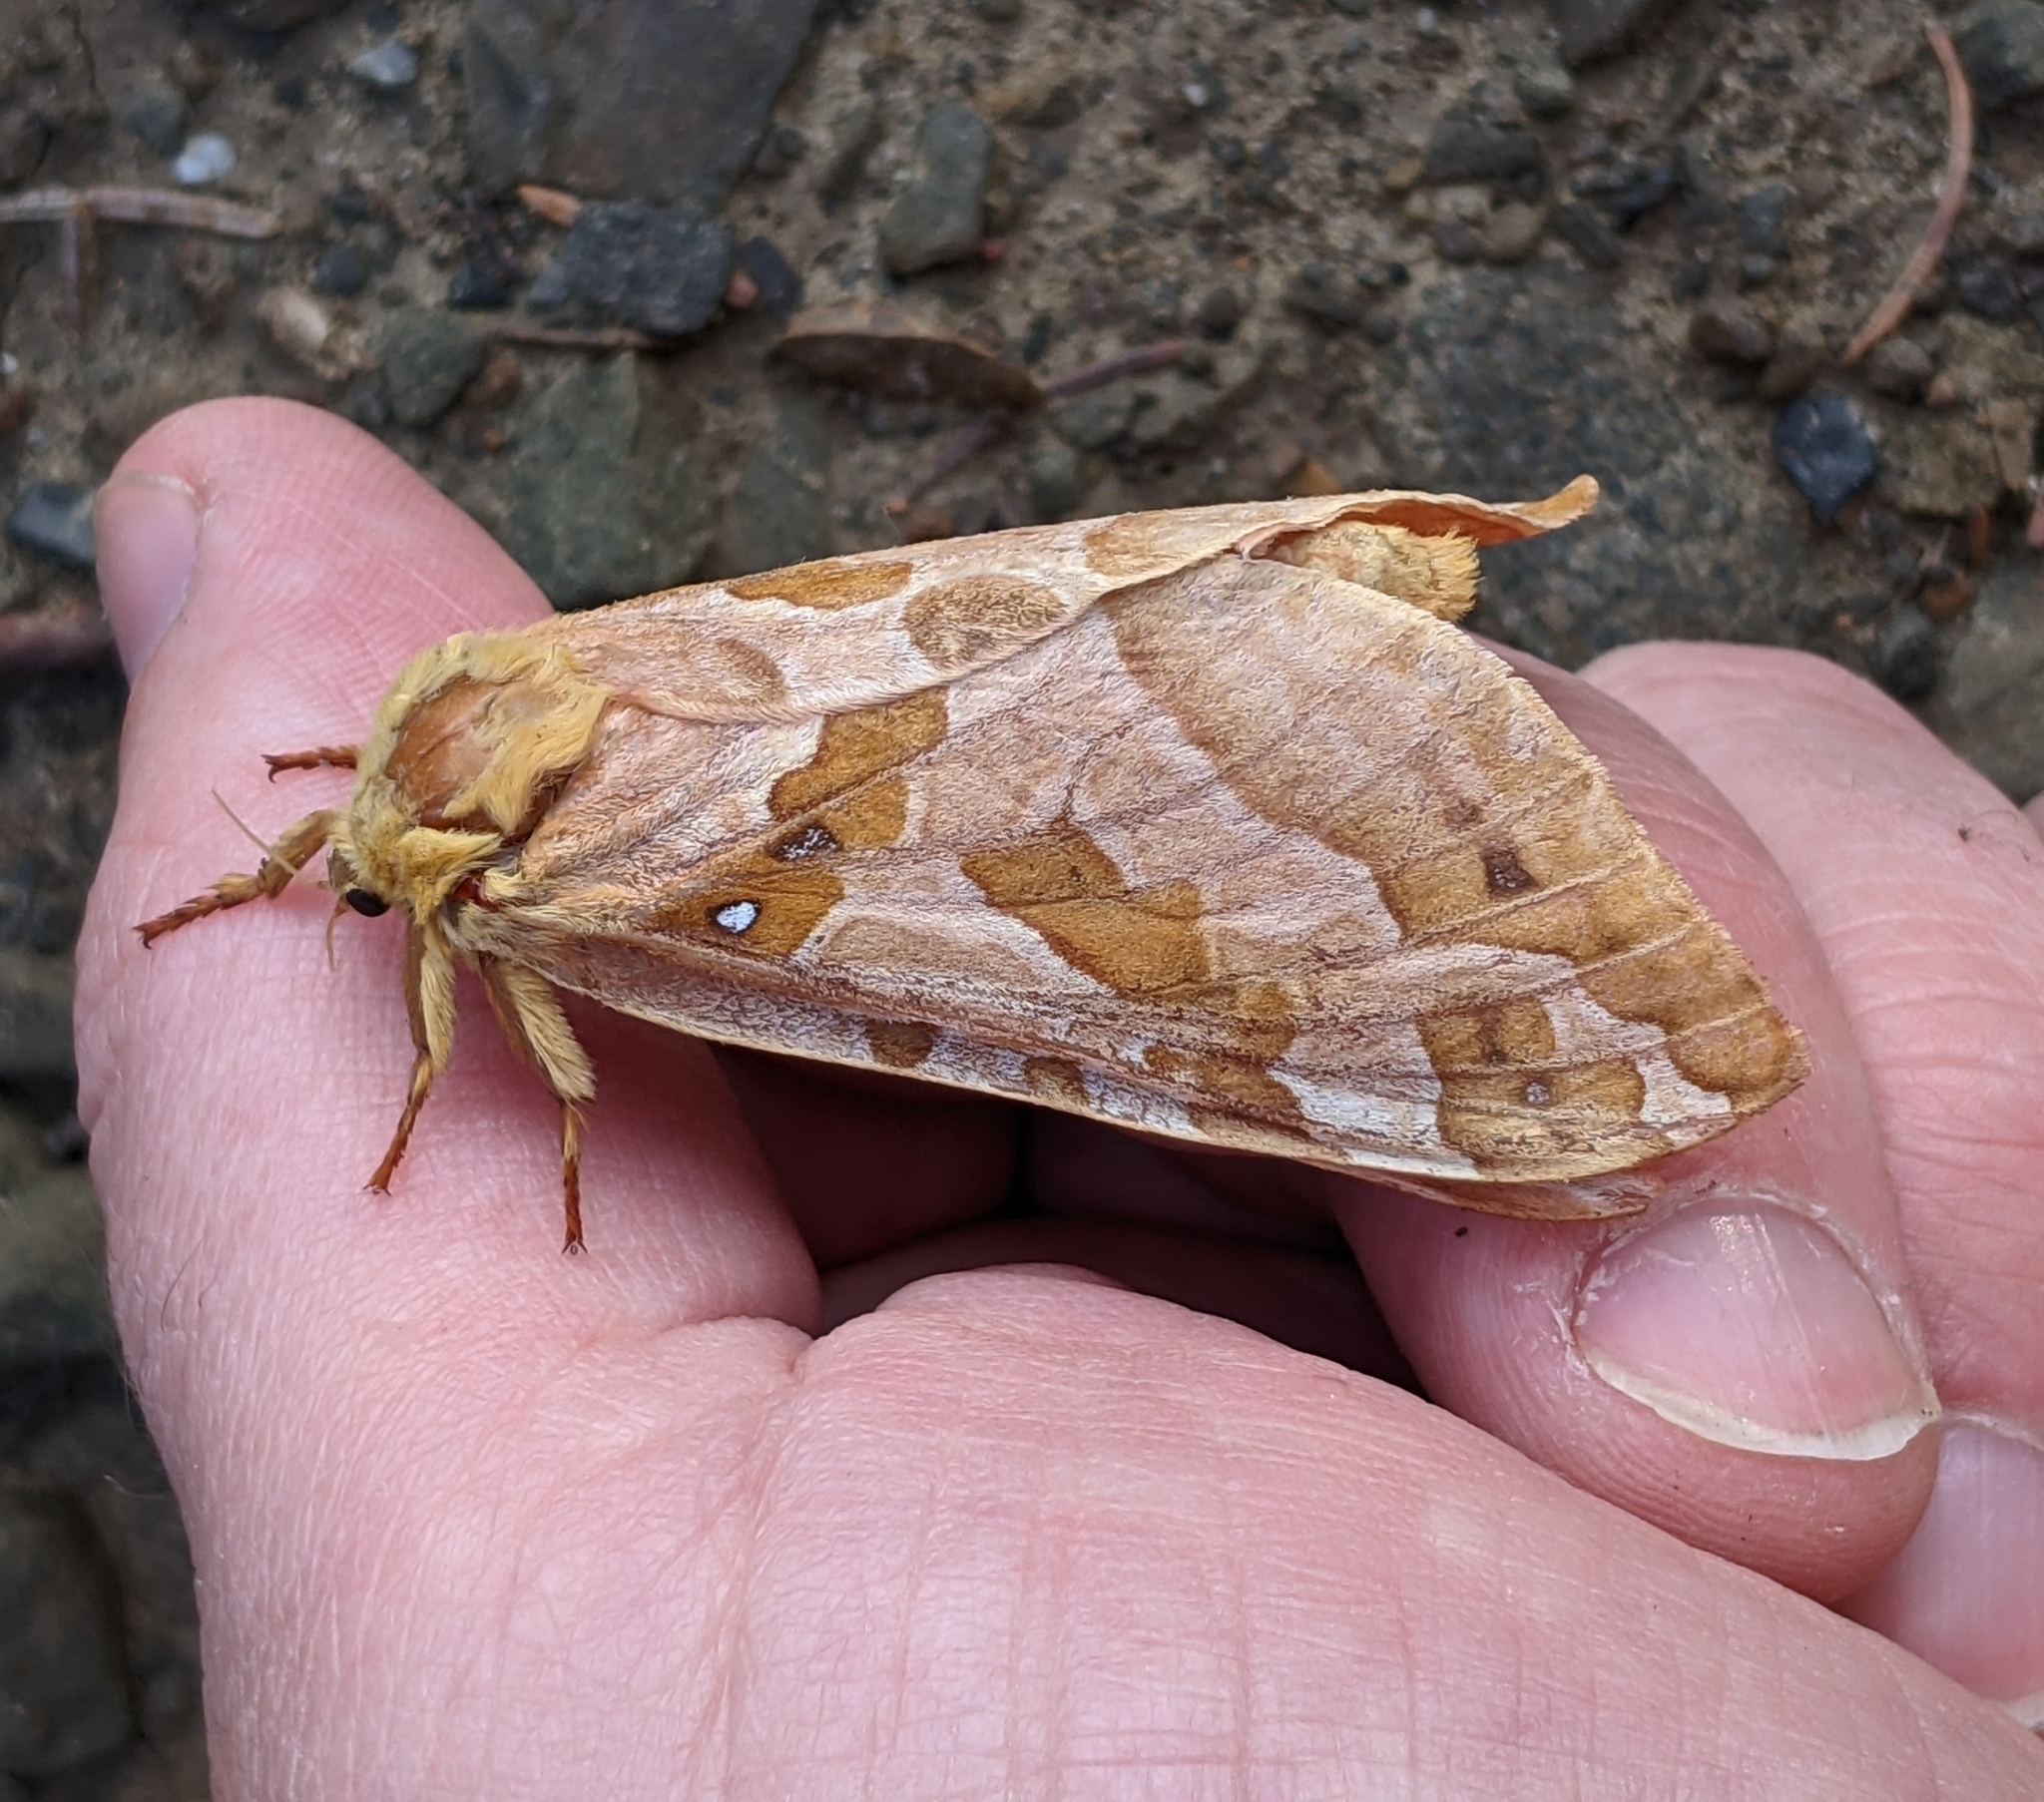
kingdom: Animalia
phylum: Arthropoda
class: Insecta
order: Lepidoptera
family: Hepialidae
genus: Sthenopis
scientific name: Sthenopis purpurascens
